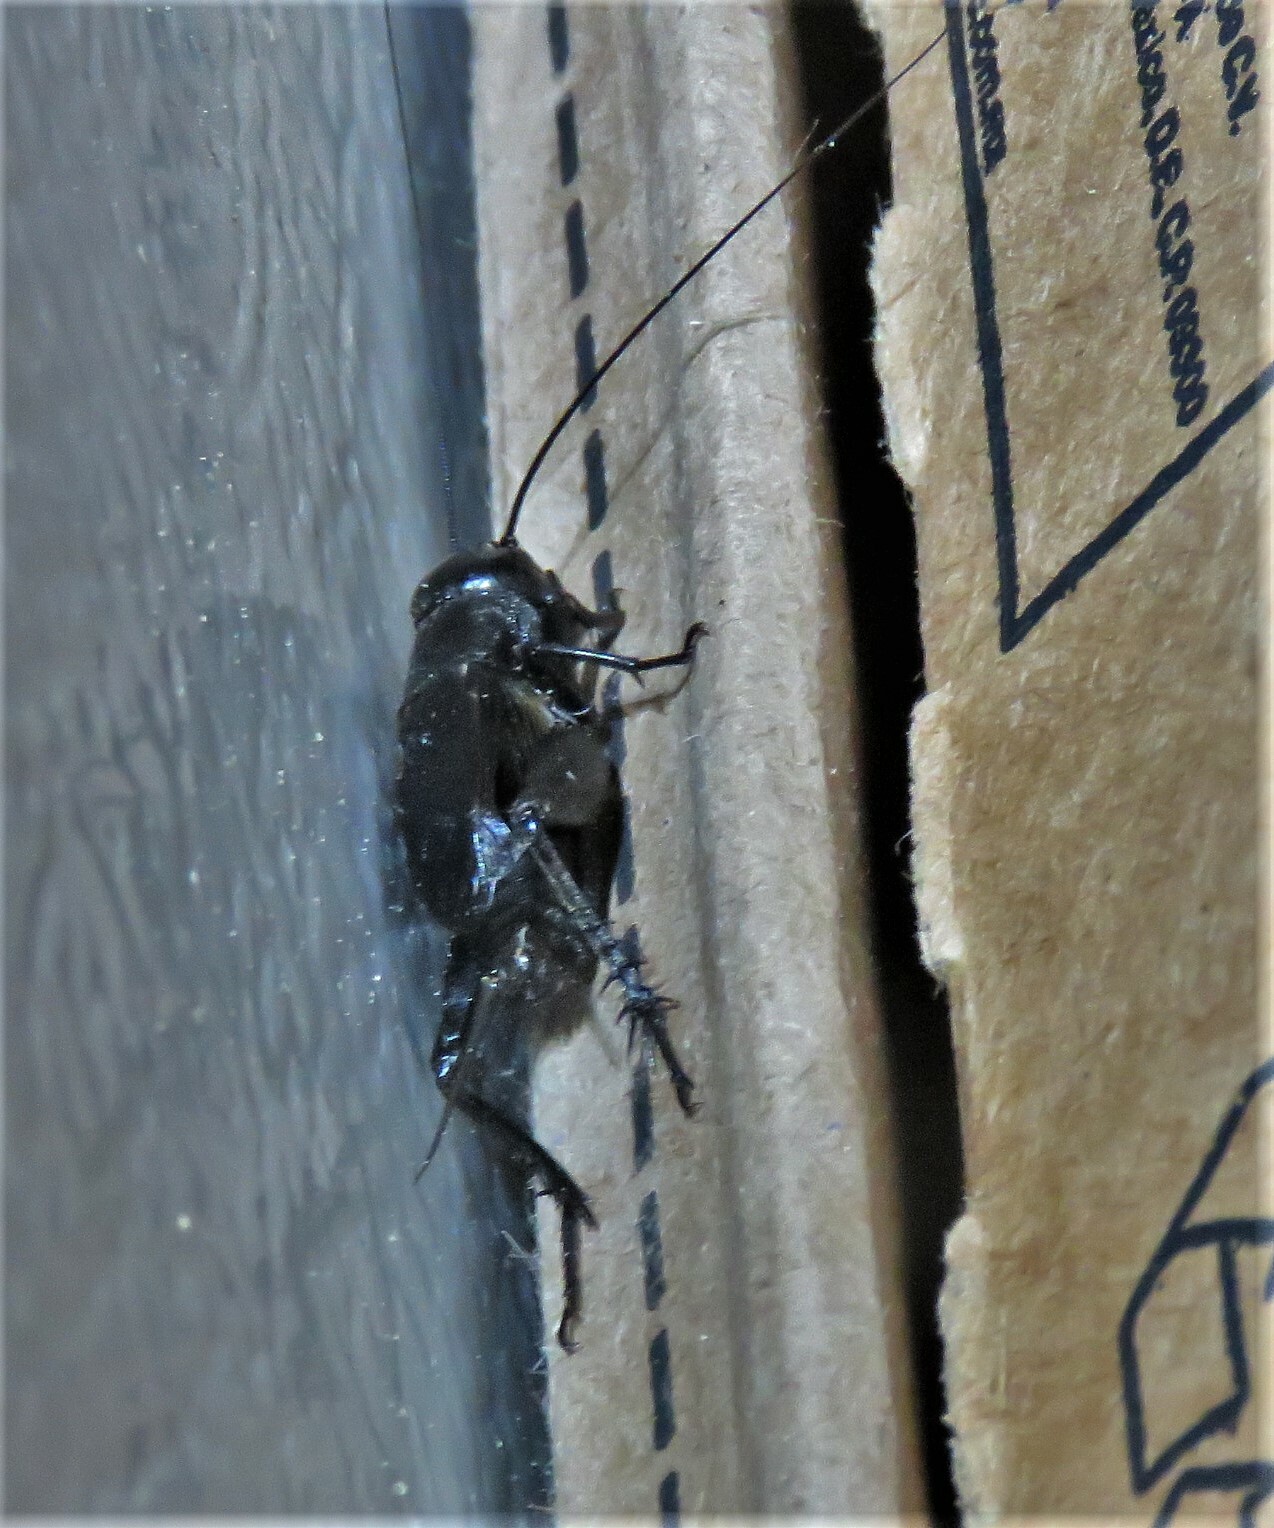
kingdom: Animalia
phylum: Arthropoda
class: Insecta
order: Orthoptera
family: Gryllidae
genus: Gryllus
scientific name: Gryllus pennsylvanicus
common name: Fall field cricket
